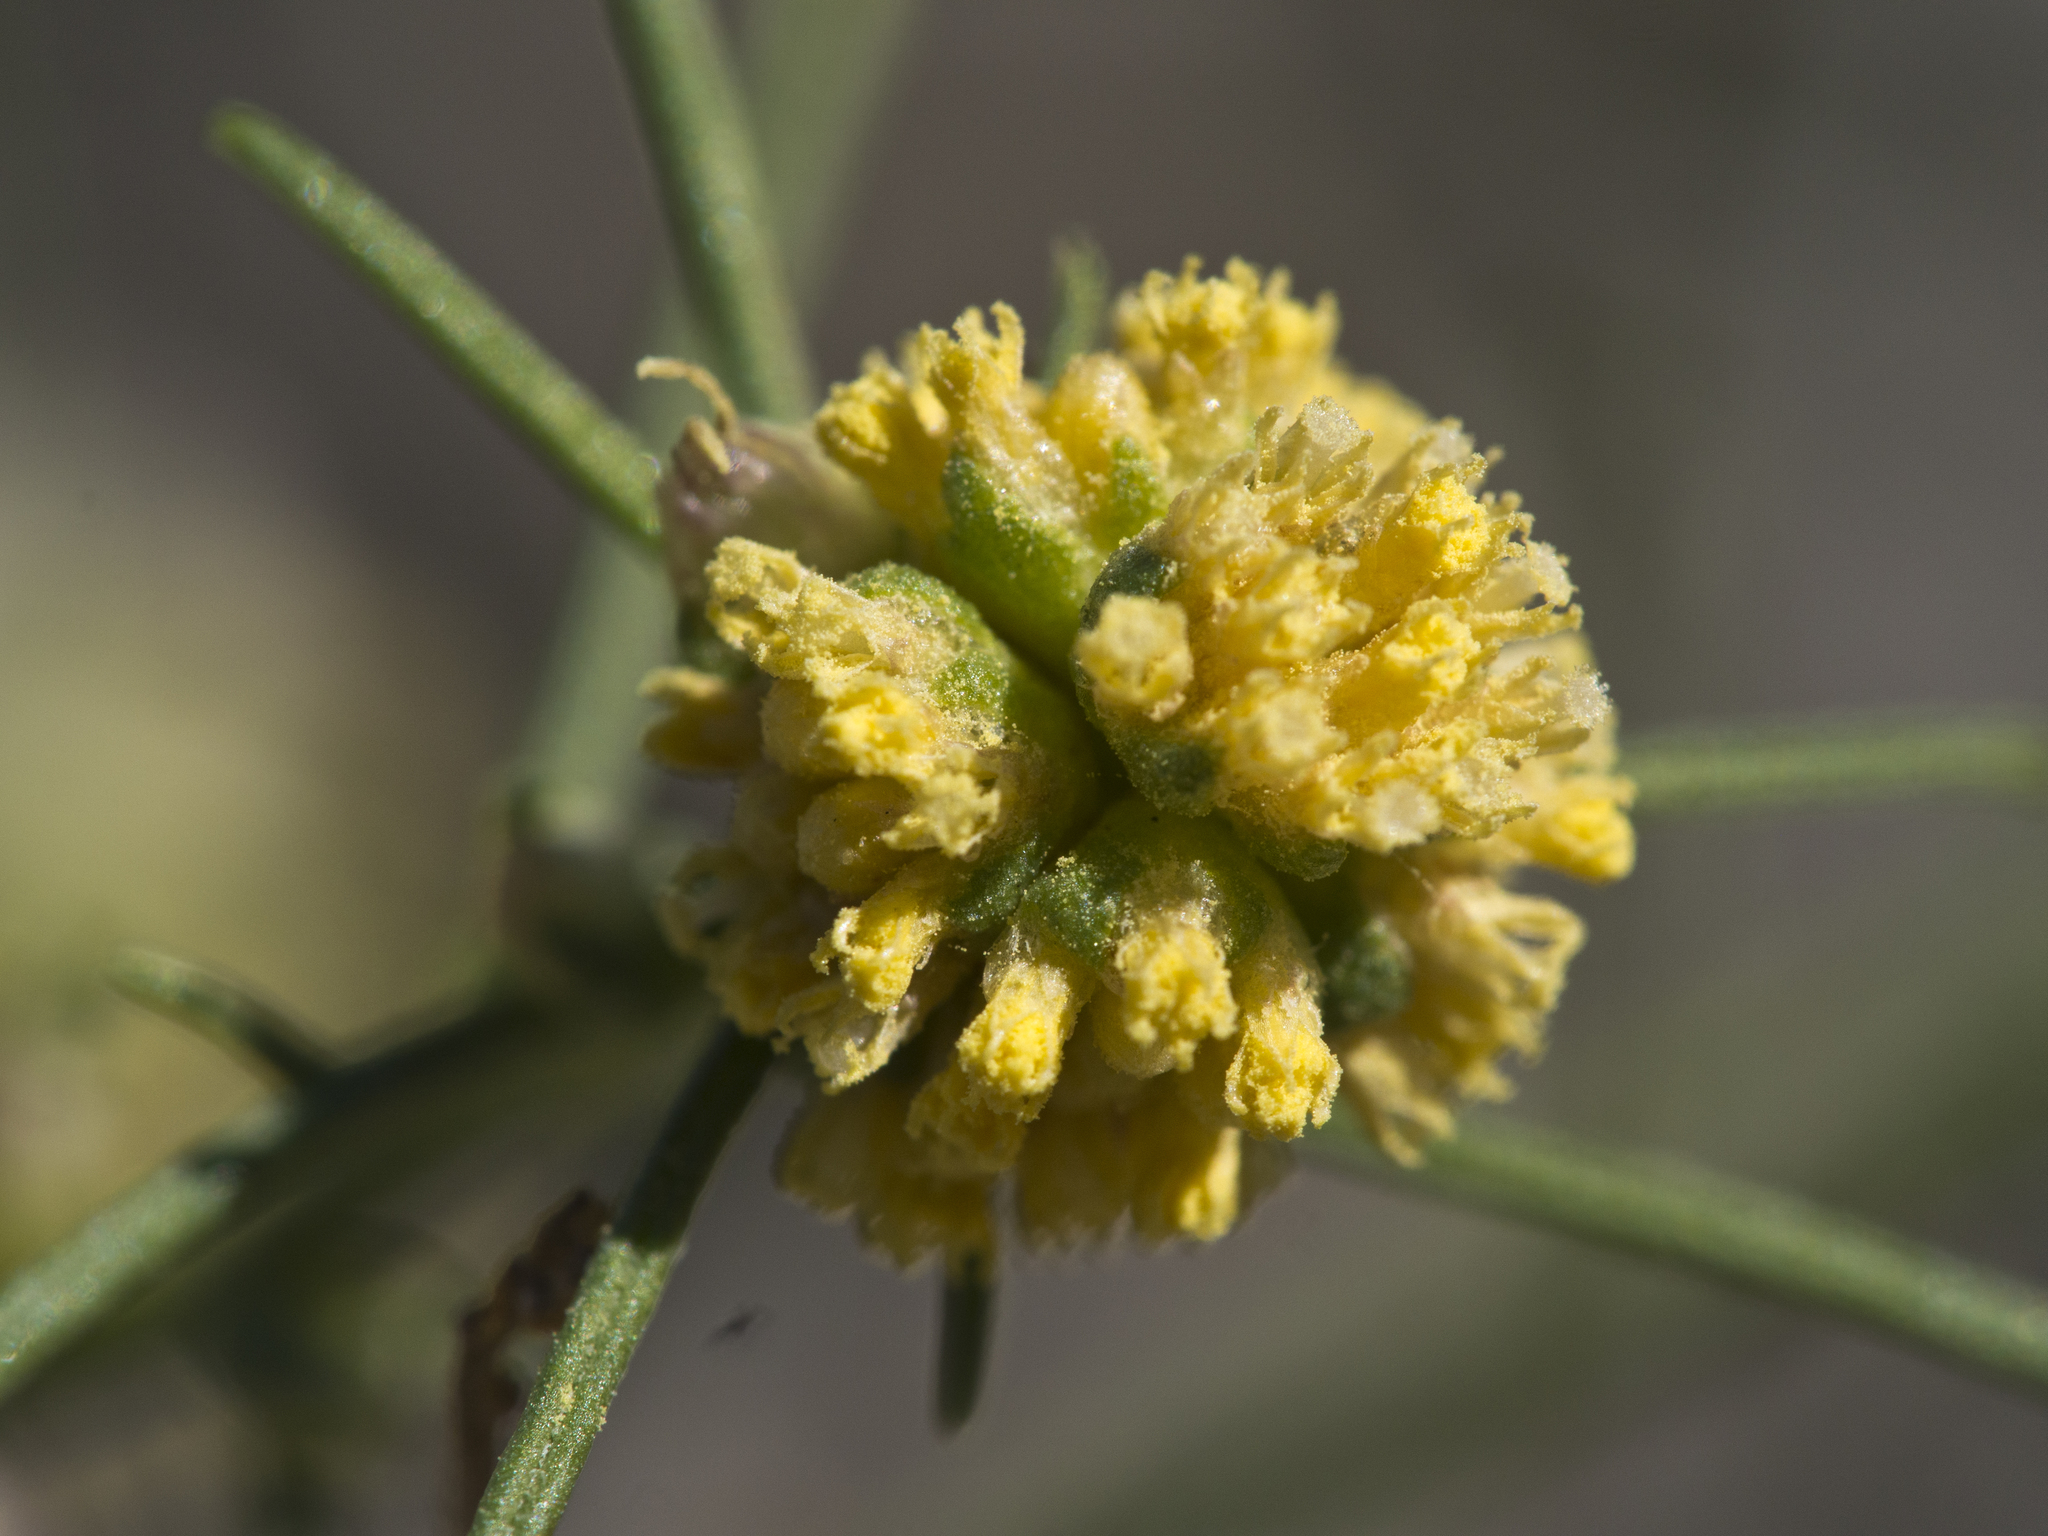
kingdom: Plantae
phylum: Tracheophyta
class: Magnoliopsida
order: Asterales
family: Asteraceae
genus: Ambrosia
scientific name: Ambrosia salsola
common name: Burrobrush
